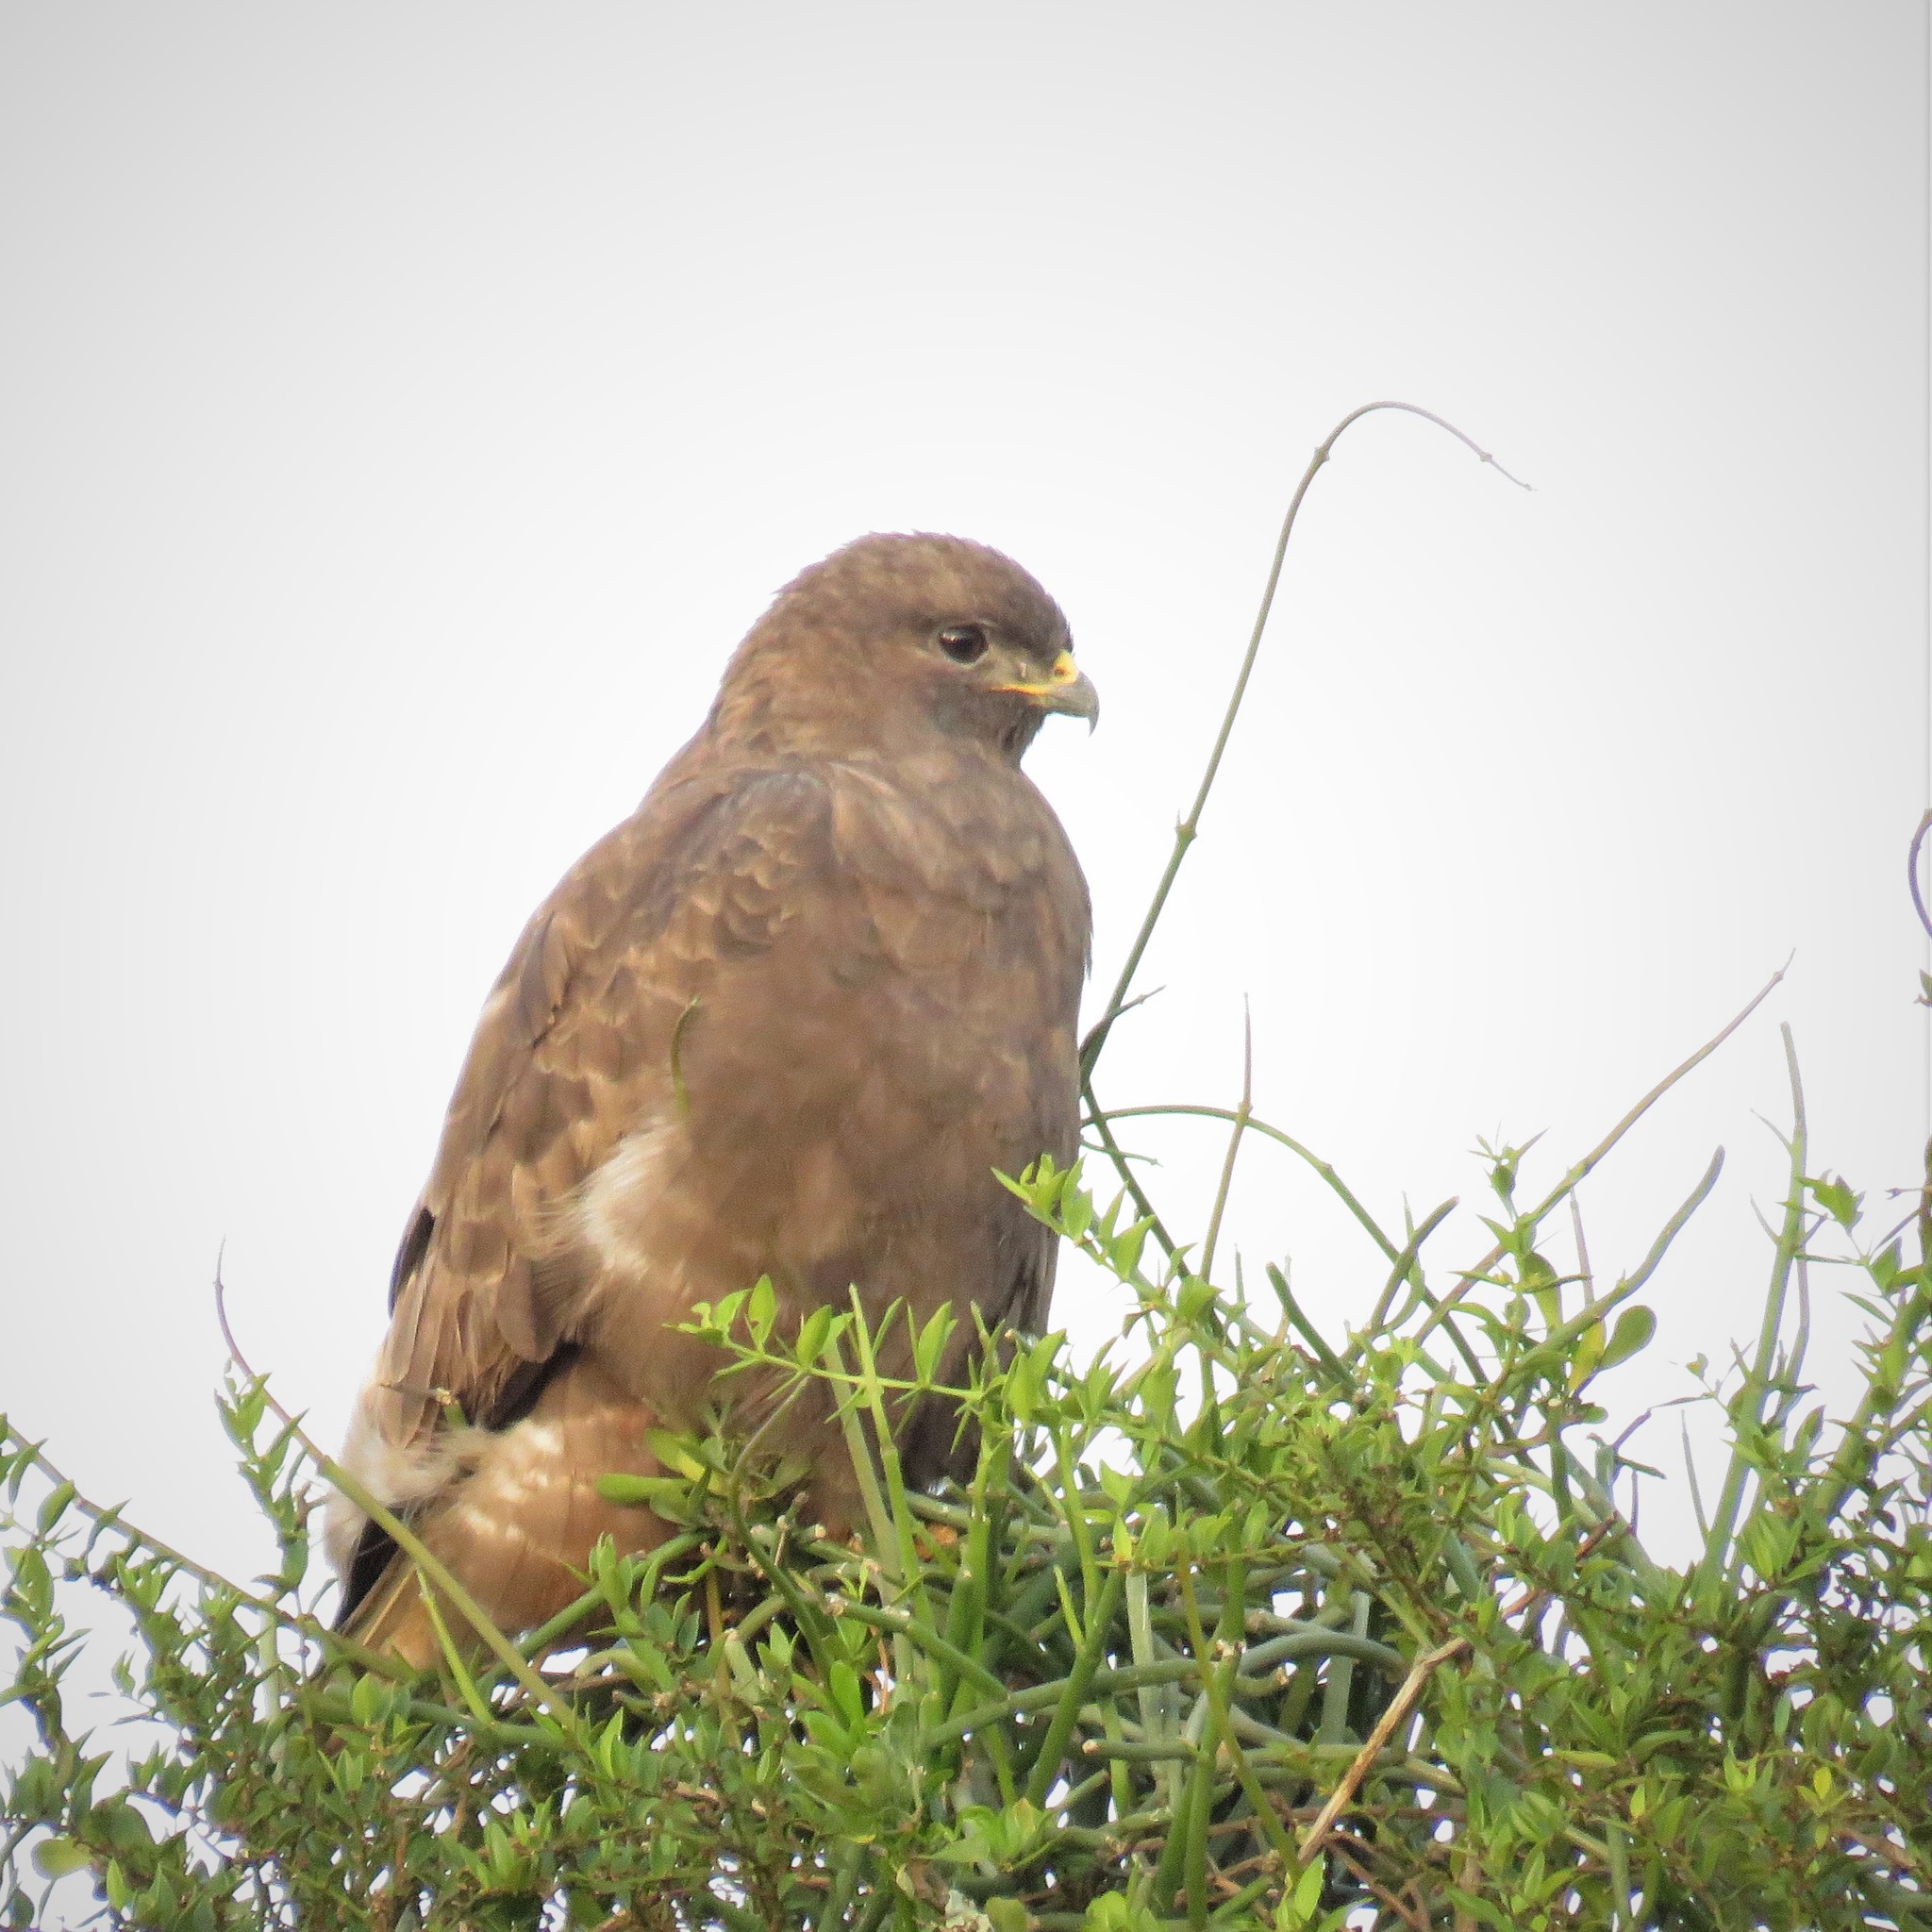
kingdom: Animalia
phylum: Chordata
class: Aves
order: Accipitriformes
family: Accipitridae
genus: Buteo
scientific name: Buteo buteo
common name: Common buzzard
